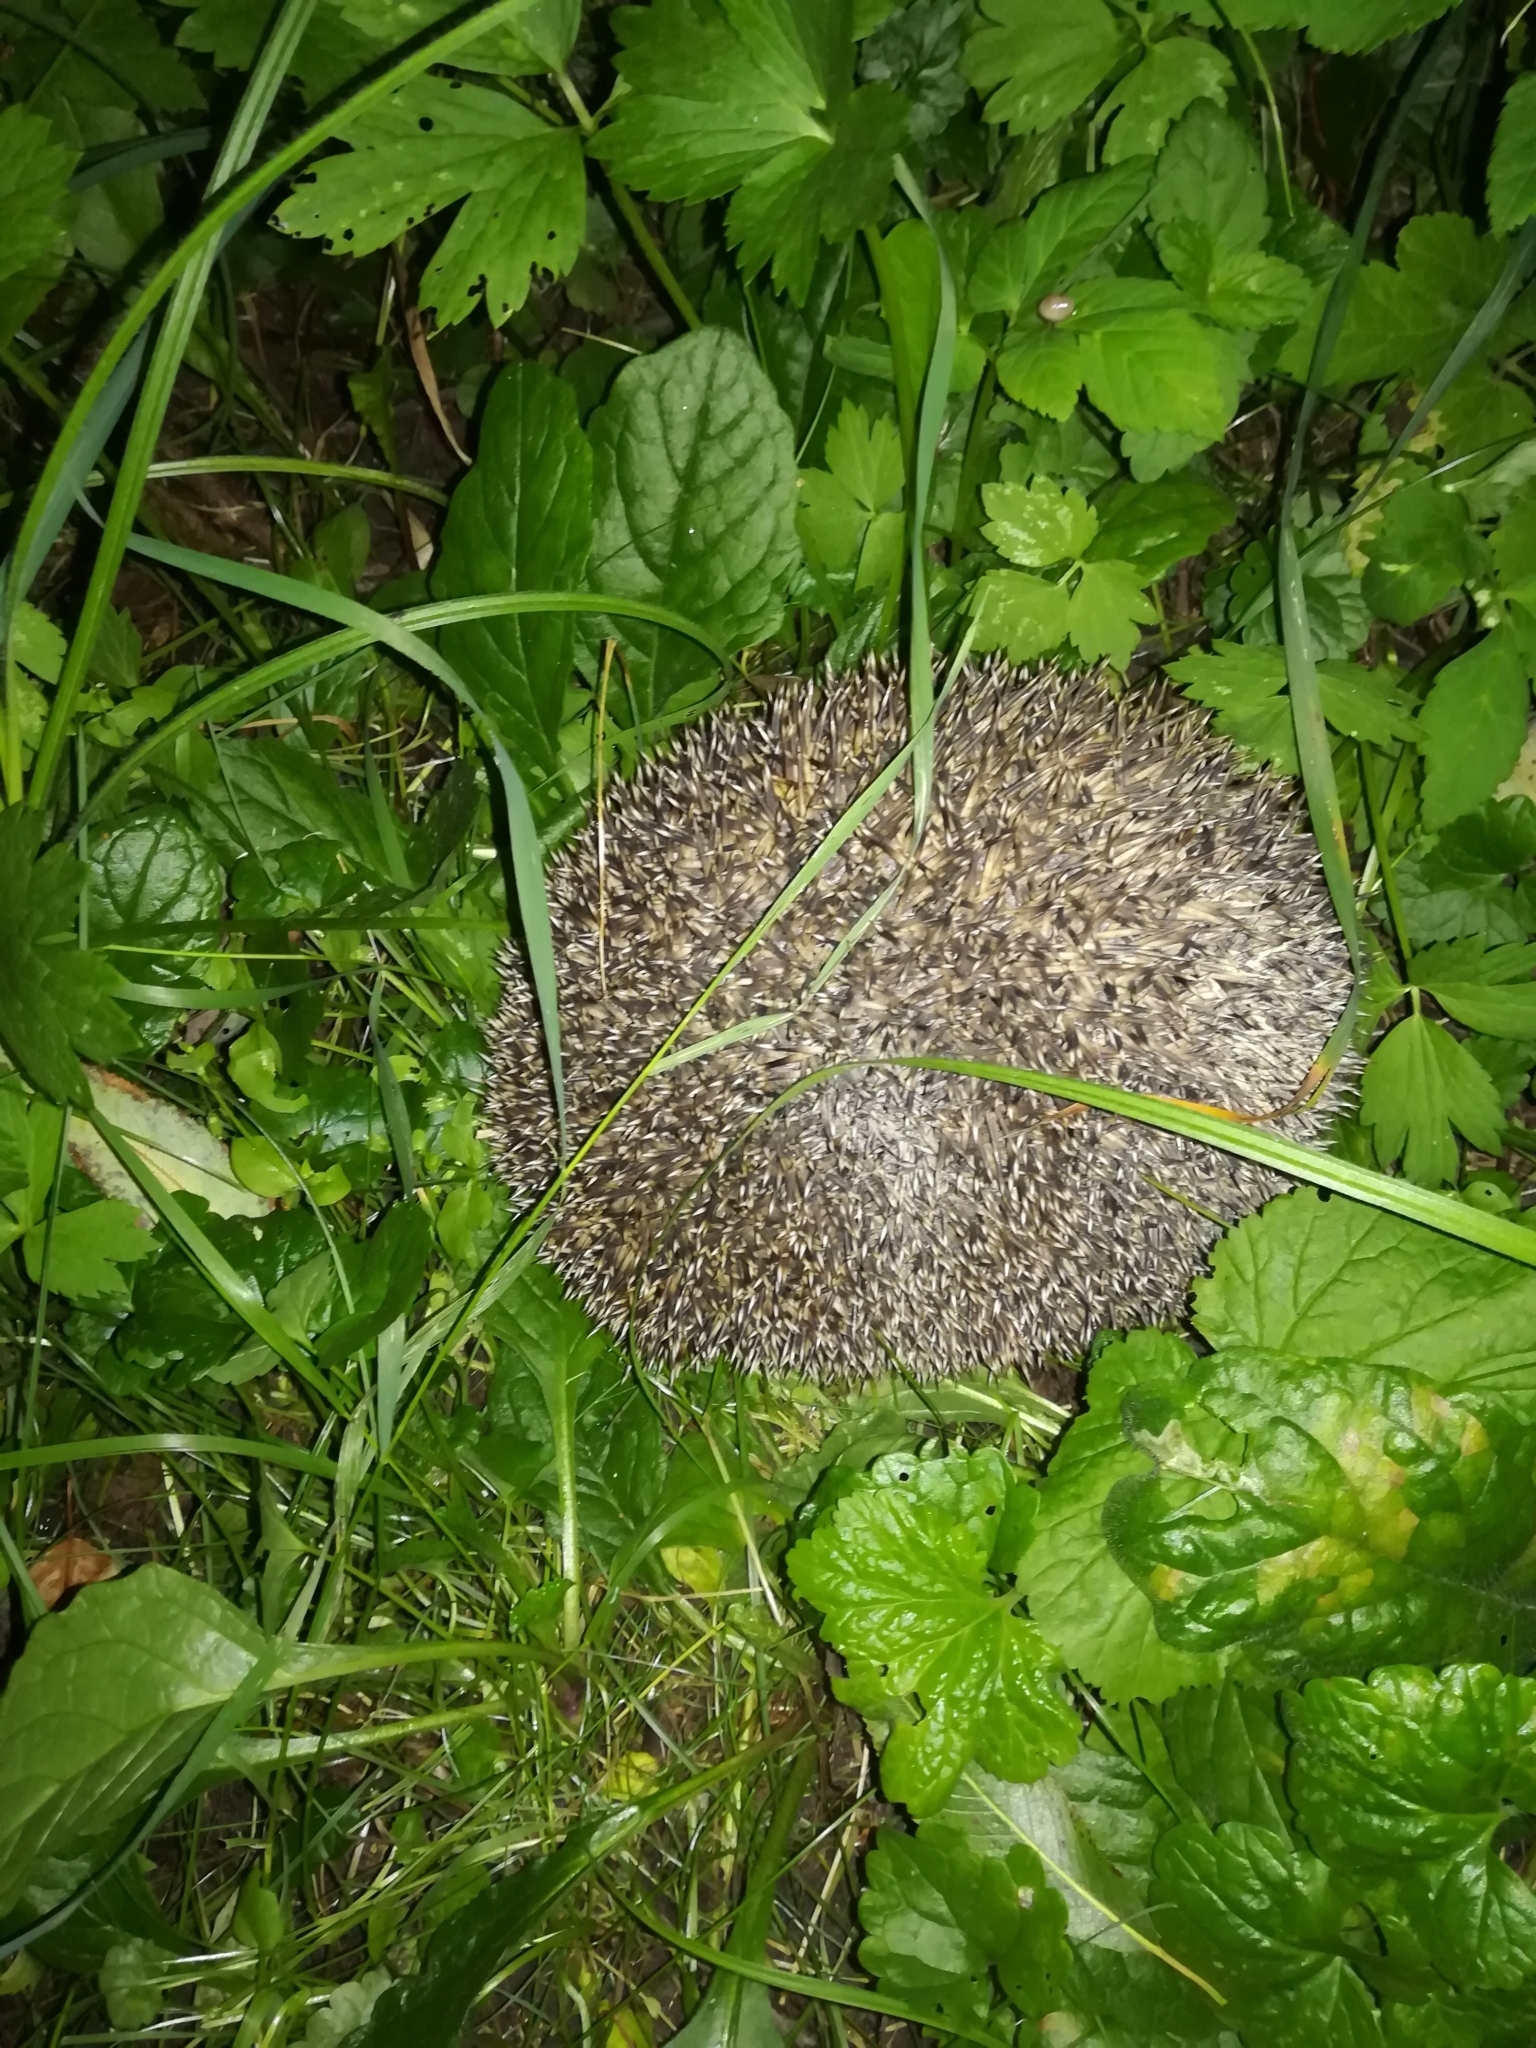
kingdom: Animalia
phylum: Chordata
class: Mammalia
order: Erinaceomorpha
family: Erinaceidae
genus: Erinaceus
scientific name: Erinaceus europaeus
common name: West european hedgehog
